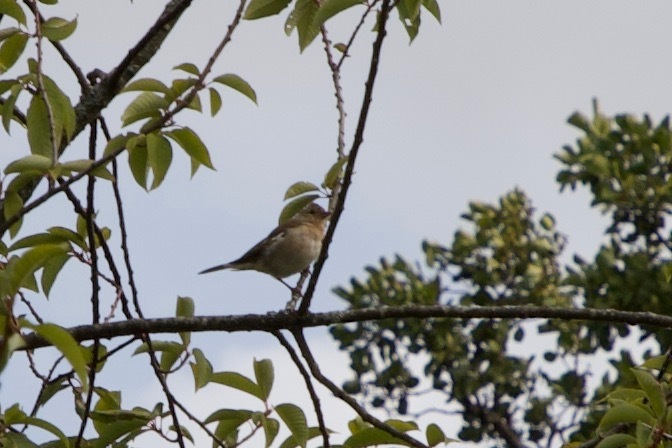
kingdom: Animalia
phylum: Chordata
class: Aves
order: Passeriformes
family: Fringillidae
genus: Fringilla
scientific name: Fringilla coelebs
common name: Common chaffinch
